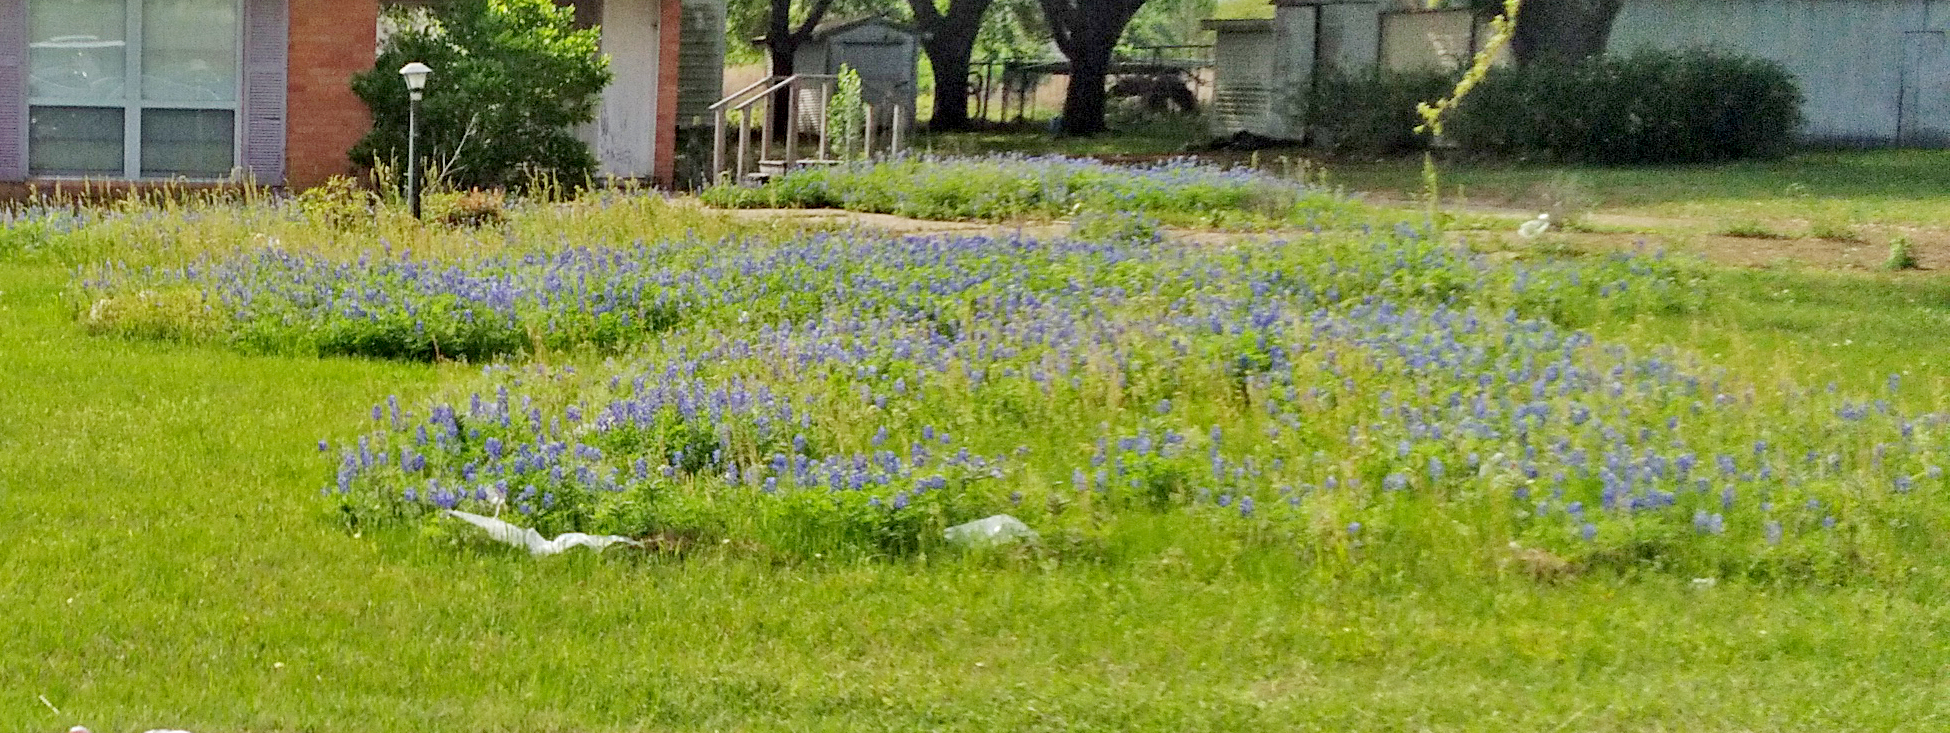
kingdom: Plantae
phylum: Tracheophyta
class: Magnoliopsida
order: Fabales
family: Fabaceae
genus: Lupinus
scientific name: Lupinus texensis
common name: Texas bluebonnet
